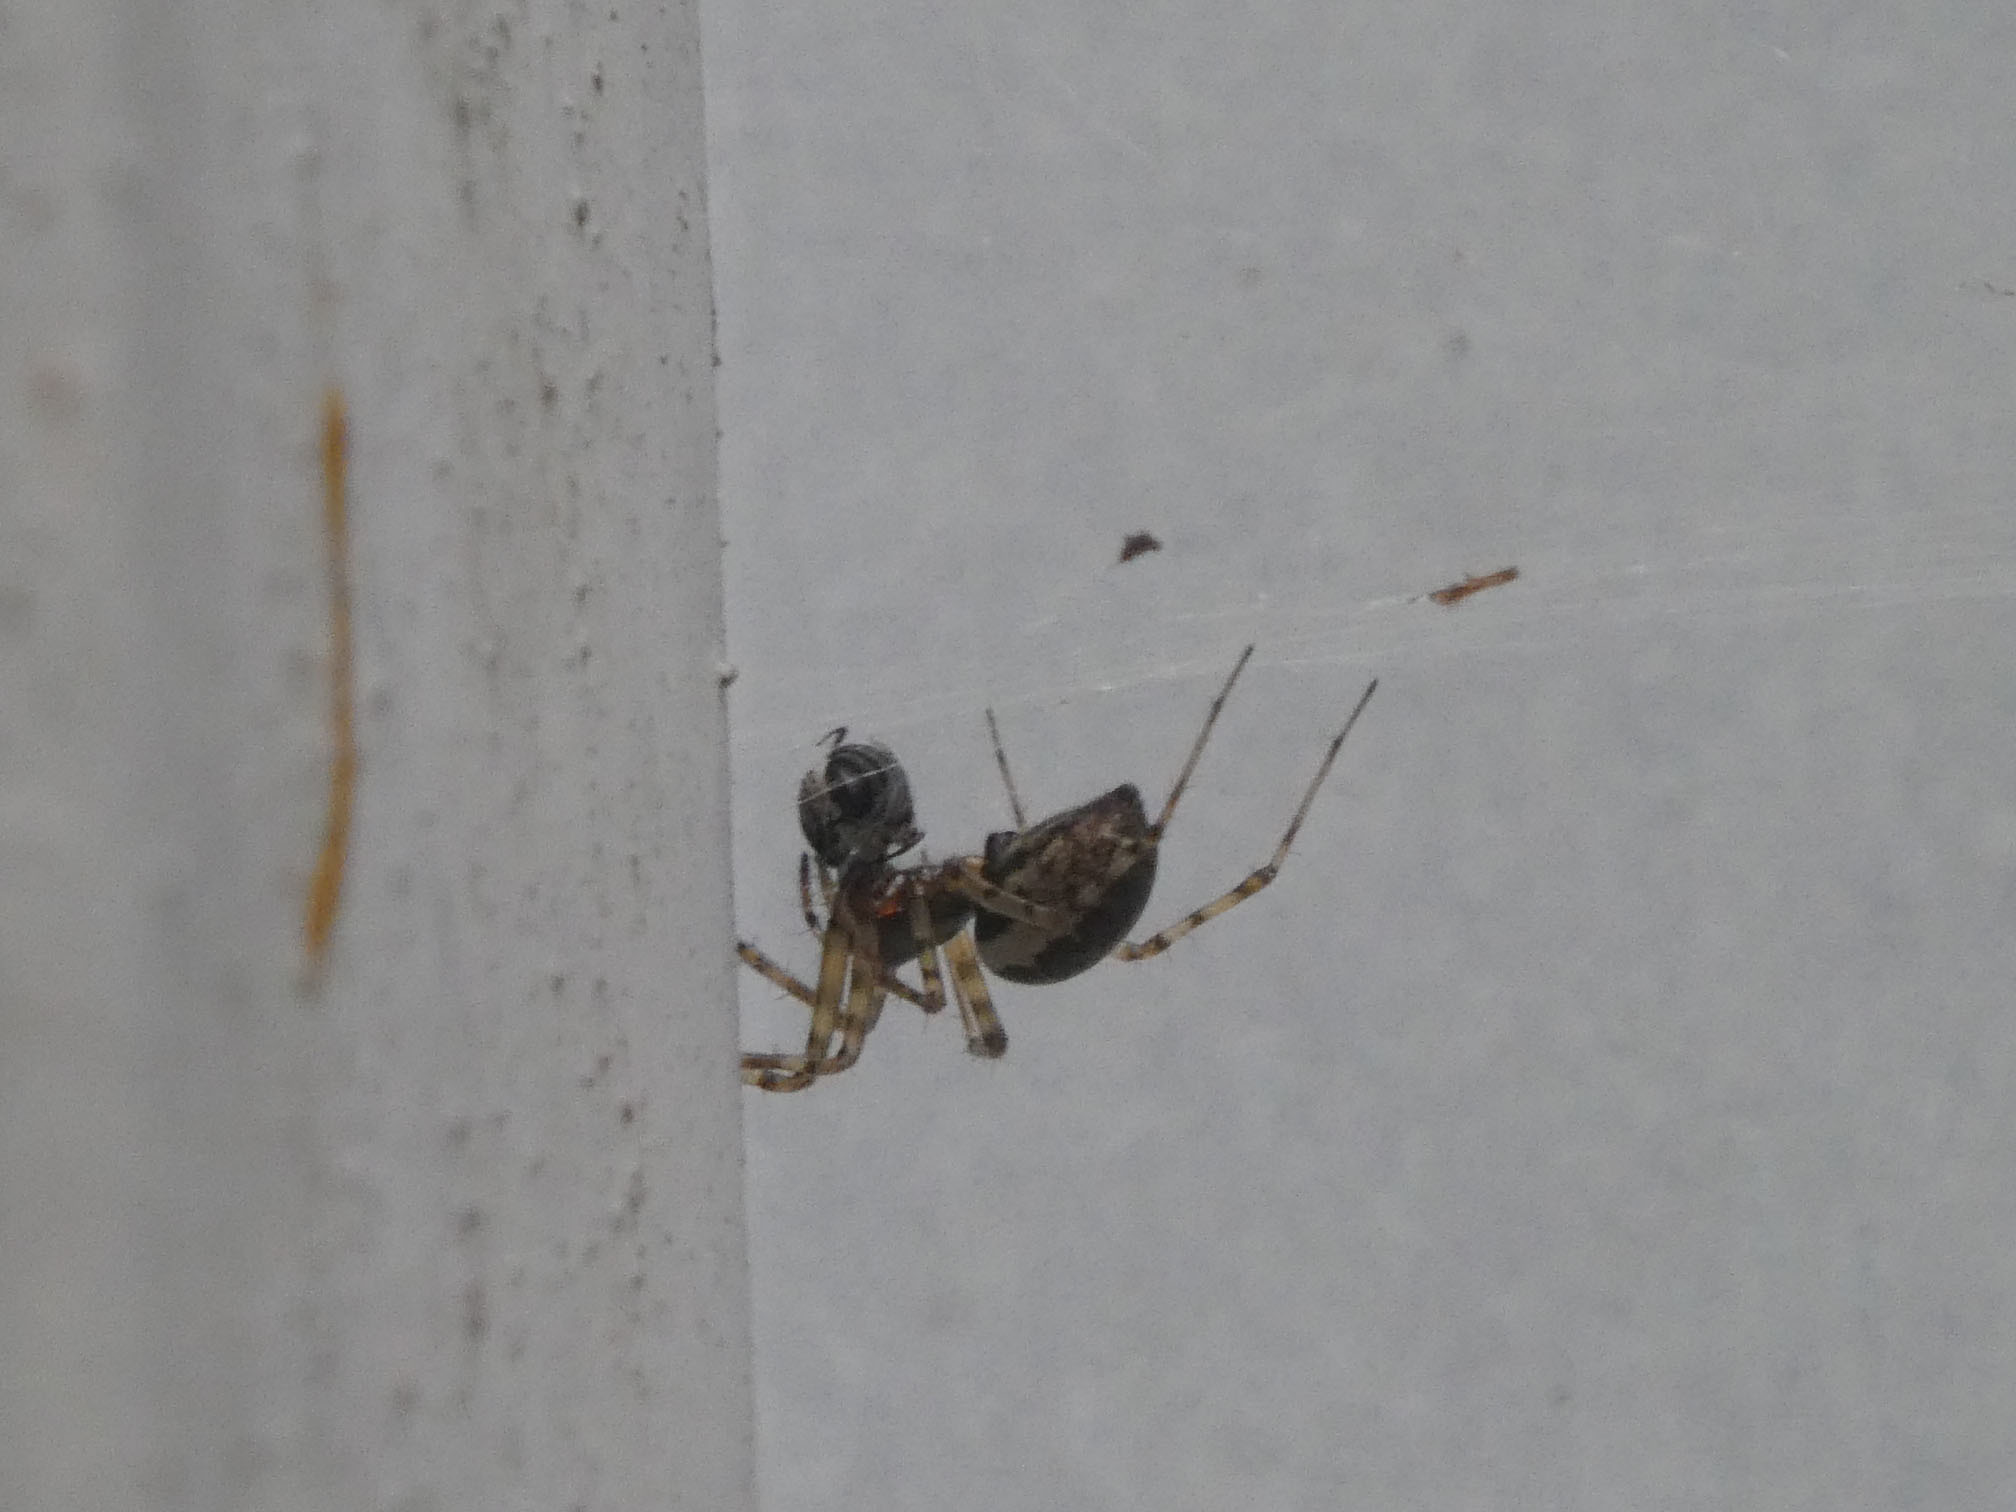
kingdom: Animalia
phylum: Arthropoda
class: Arachnida
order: Araneae
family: Linyphiidae
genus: Neriene
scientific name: Neriene montana
